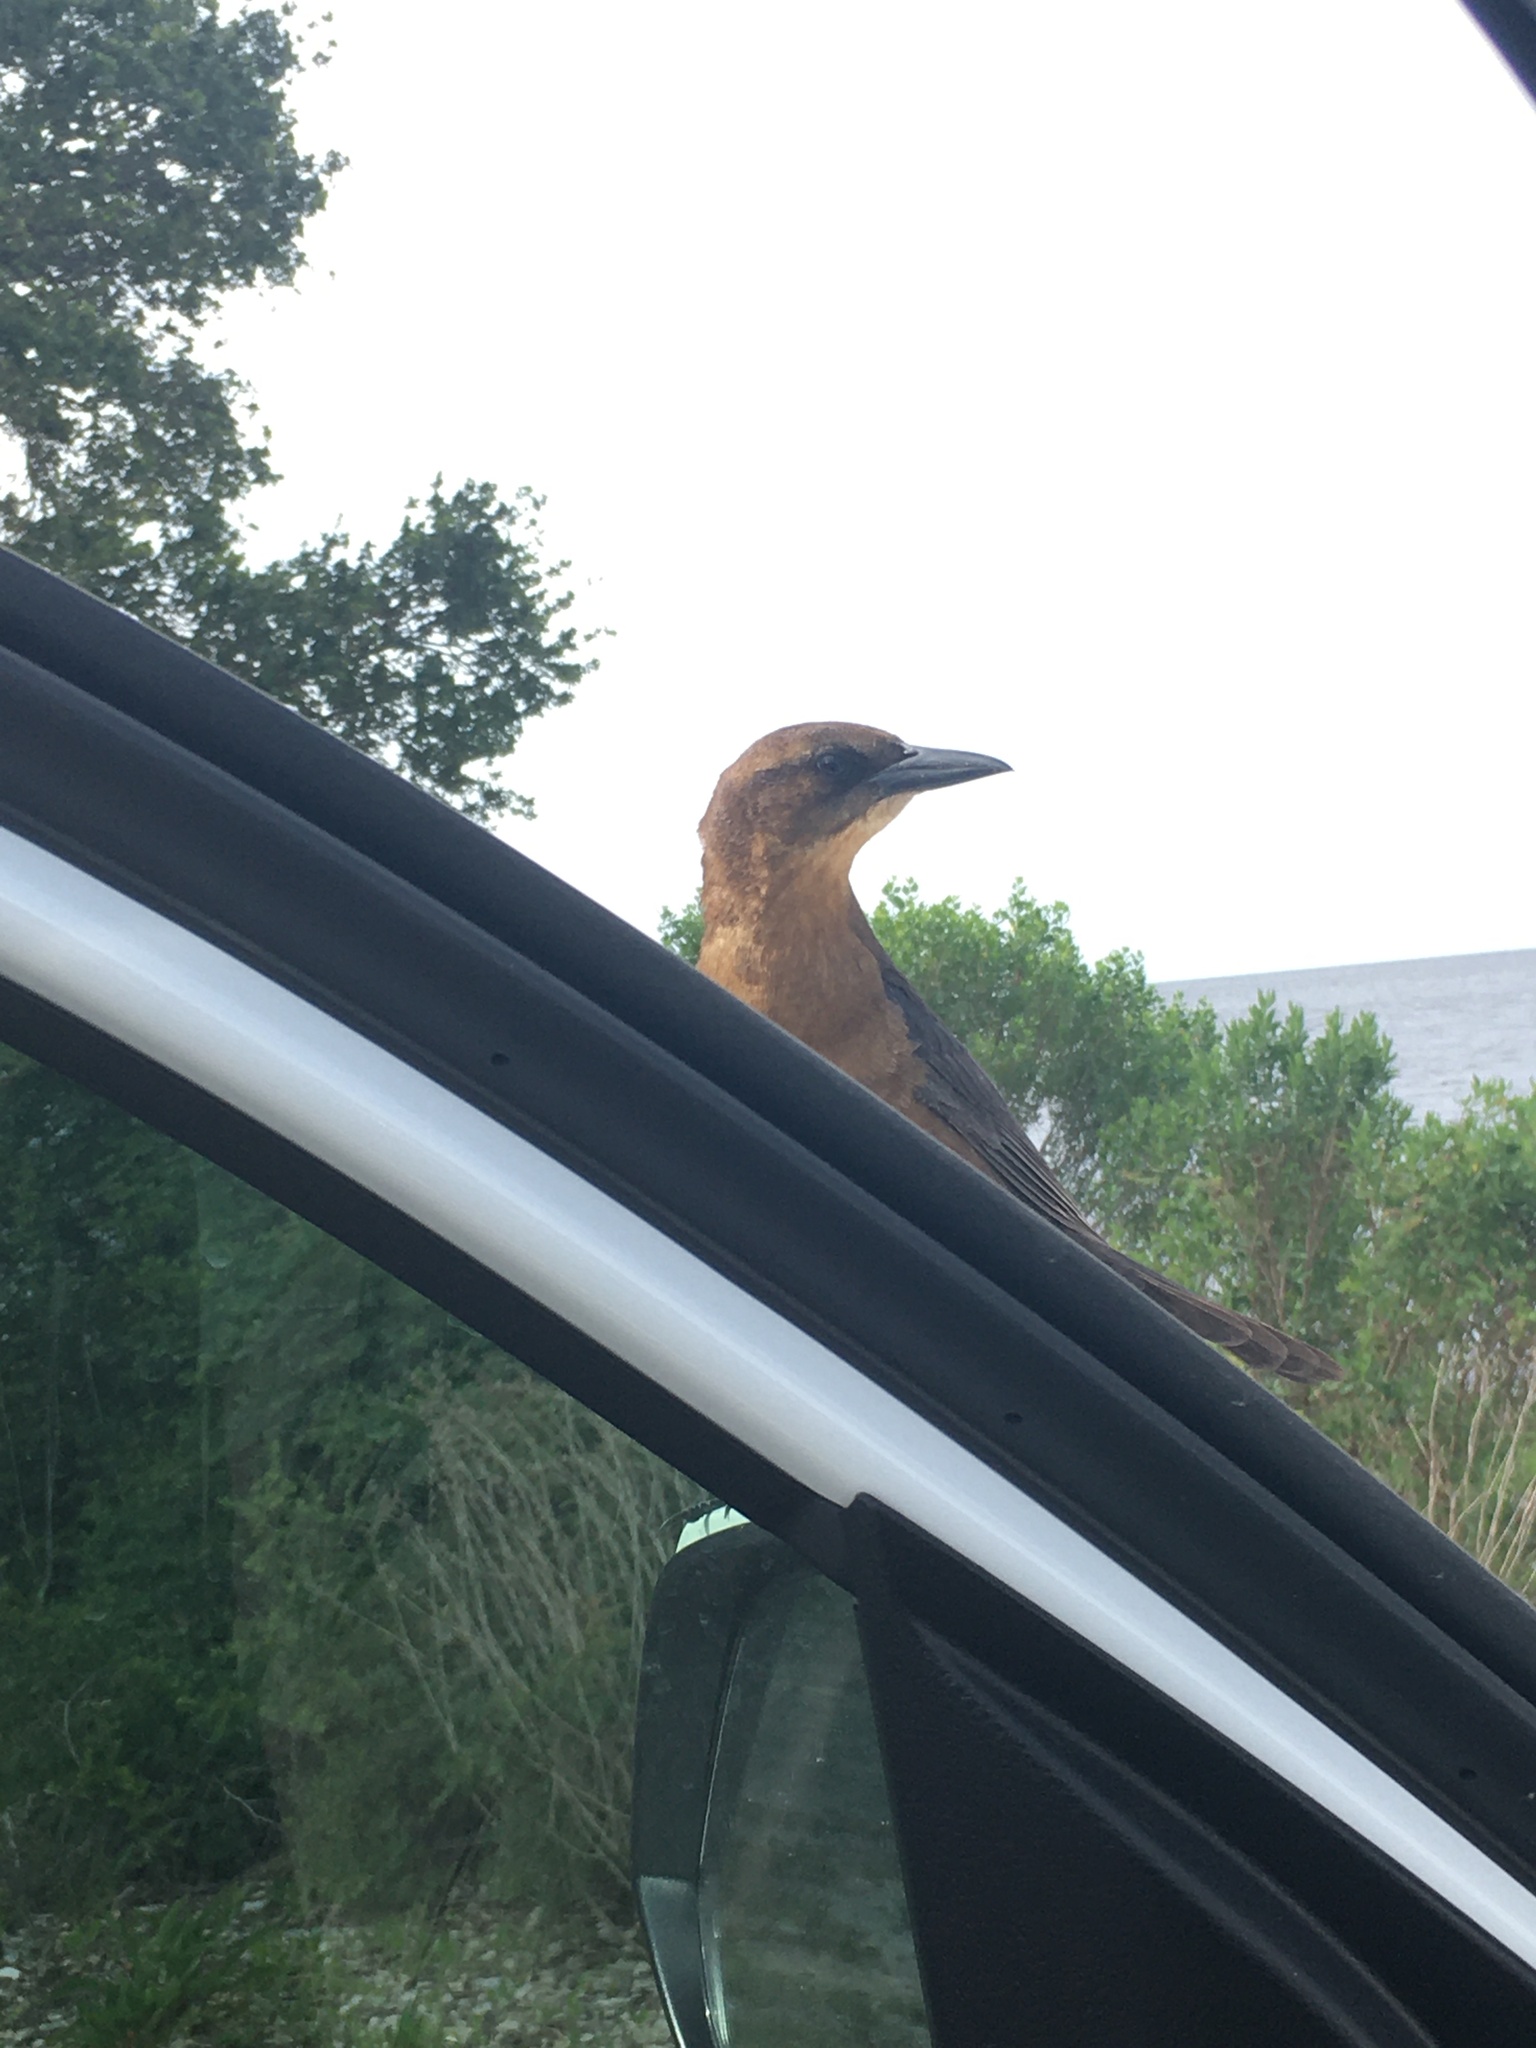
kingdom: Animalia
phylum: Chordata
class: Aves
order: Passeriformes
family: Icteridae
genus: Quiscalus
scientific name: Quiscalus major
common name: Boat-tailed grackle
